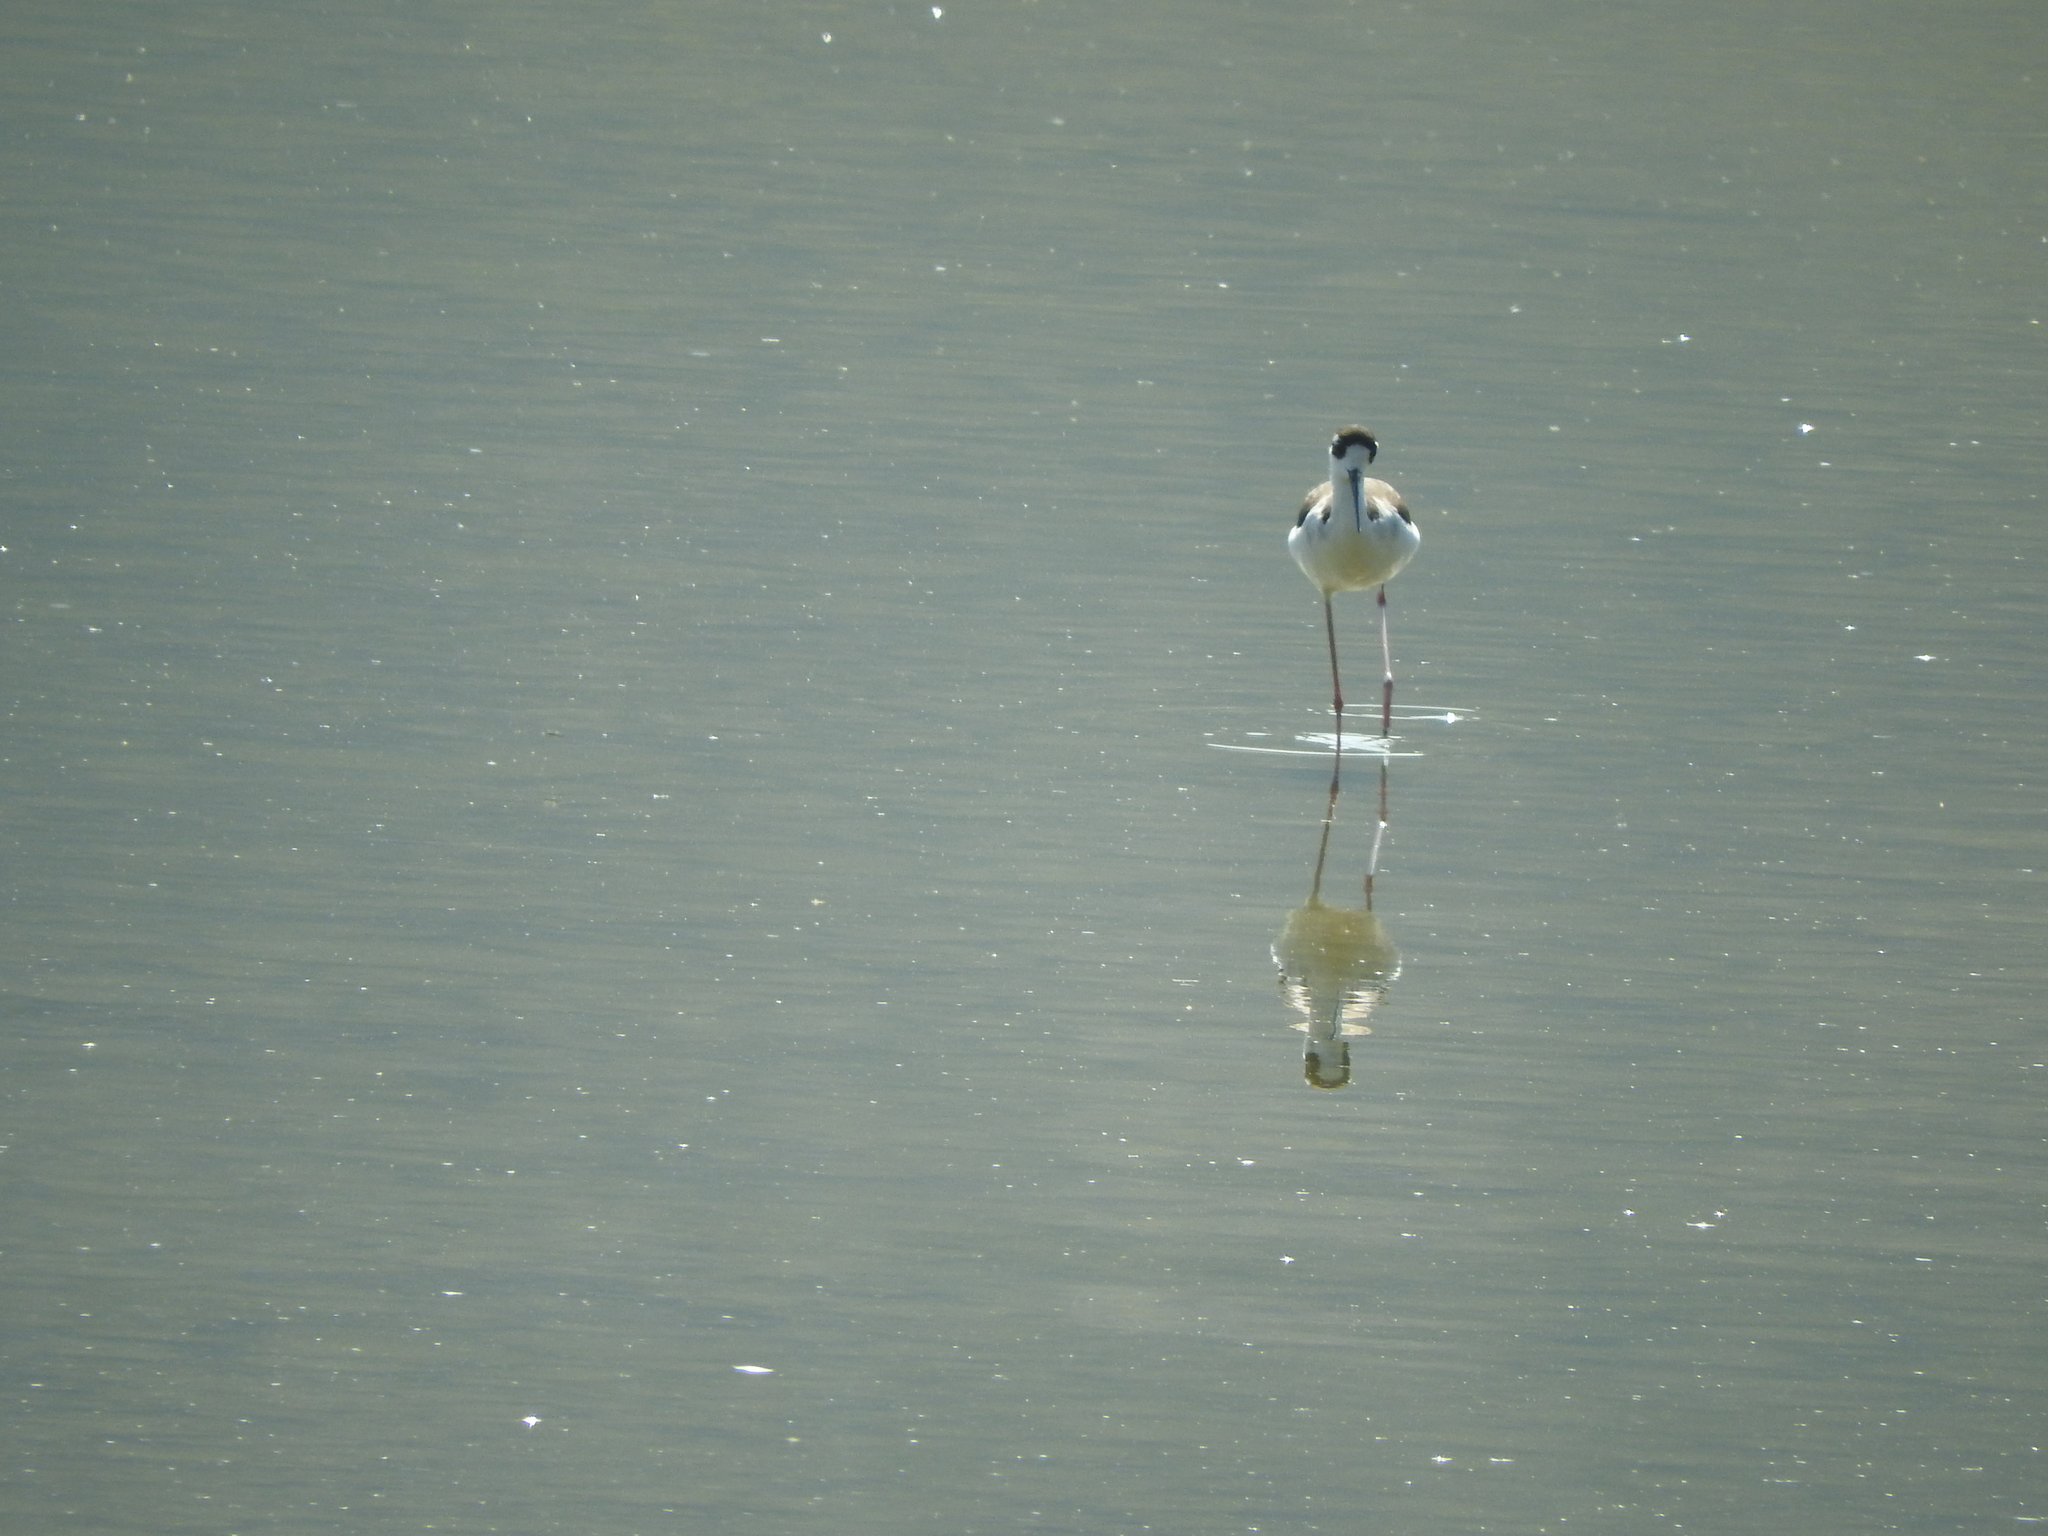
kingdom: Animalia
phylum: Chordata
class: Aves
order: Charadriiformes
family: Recurvirostridae
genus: Himantopus
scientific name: Himantopus mexicanus
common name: Black-necked stilt
